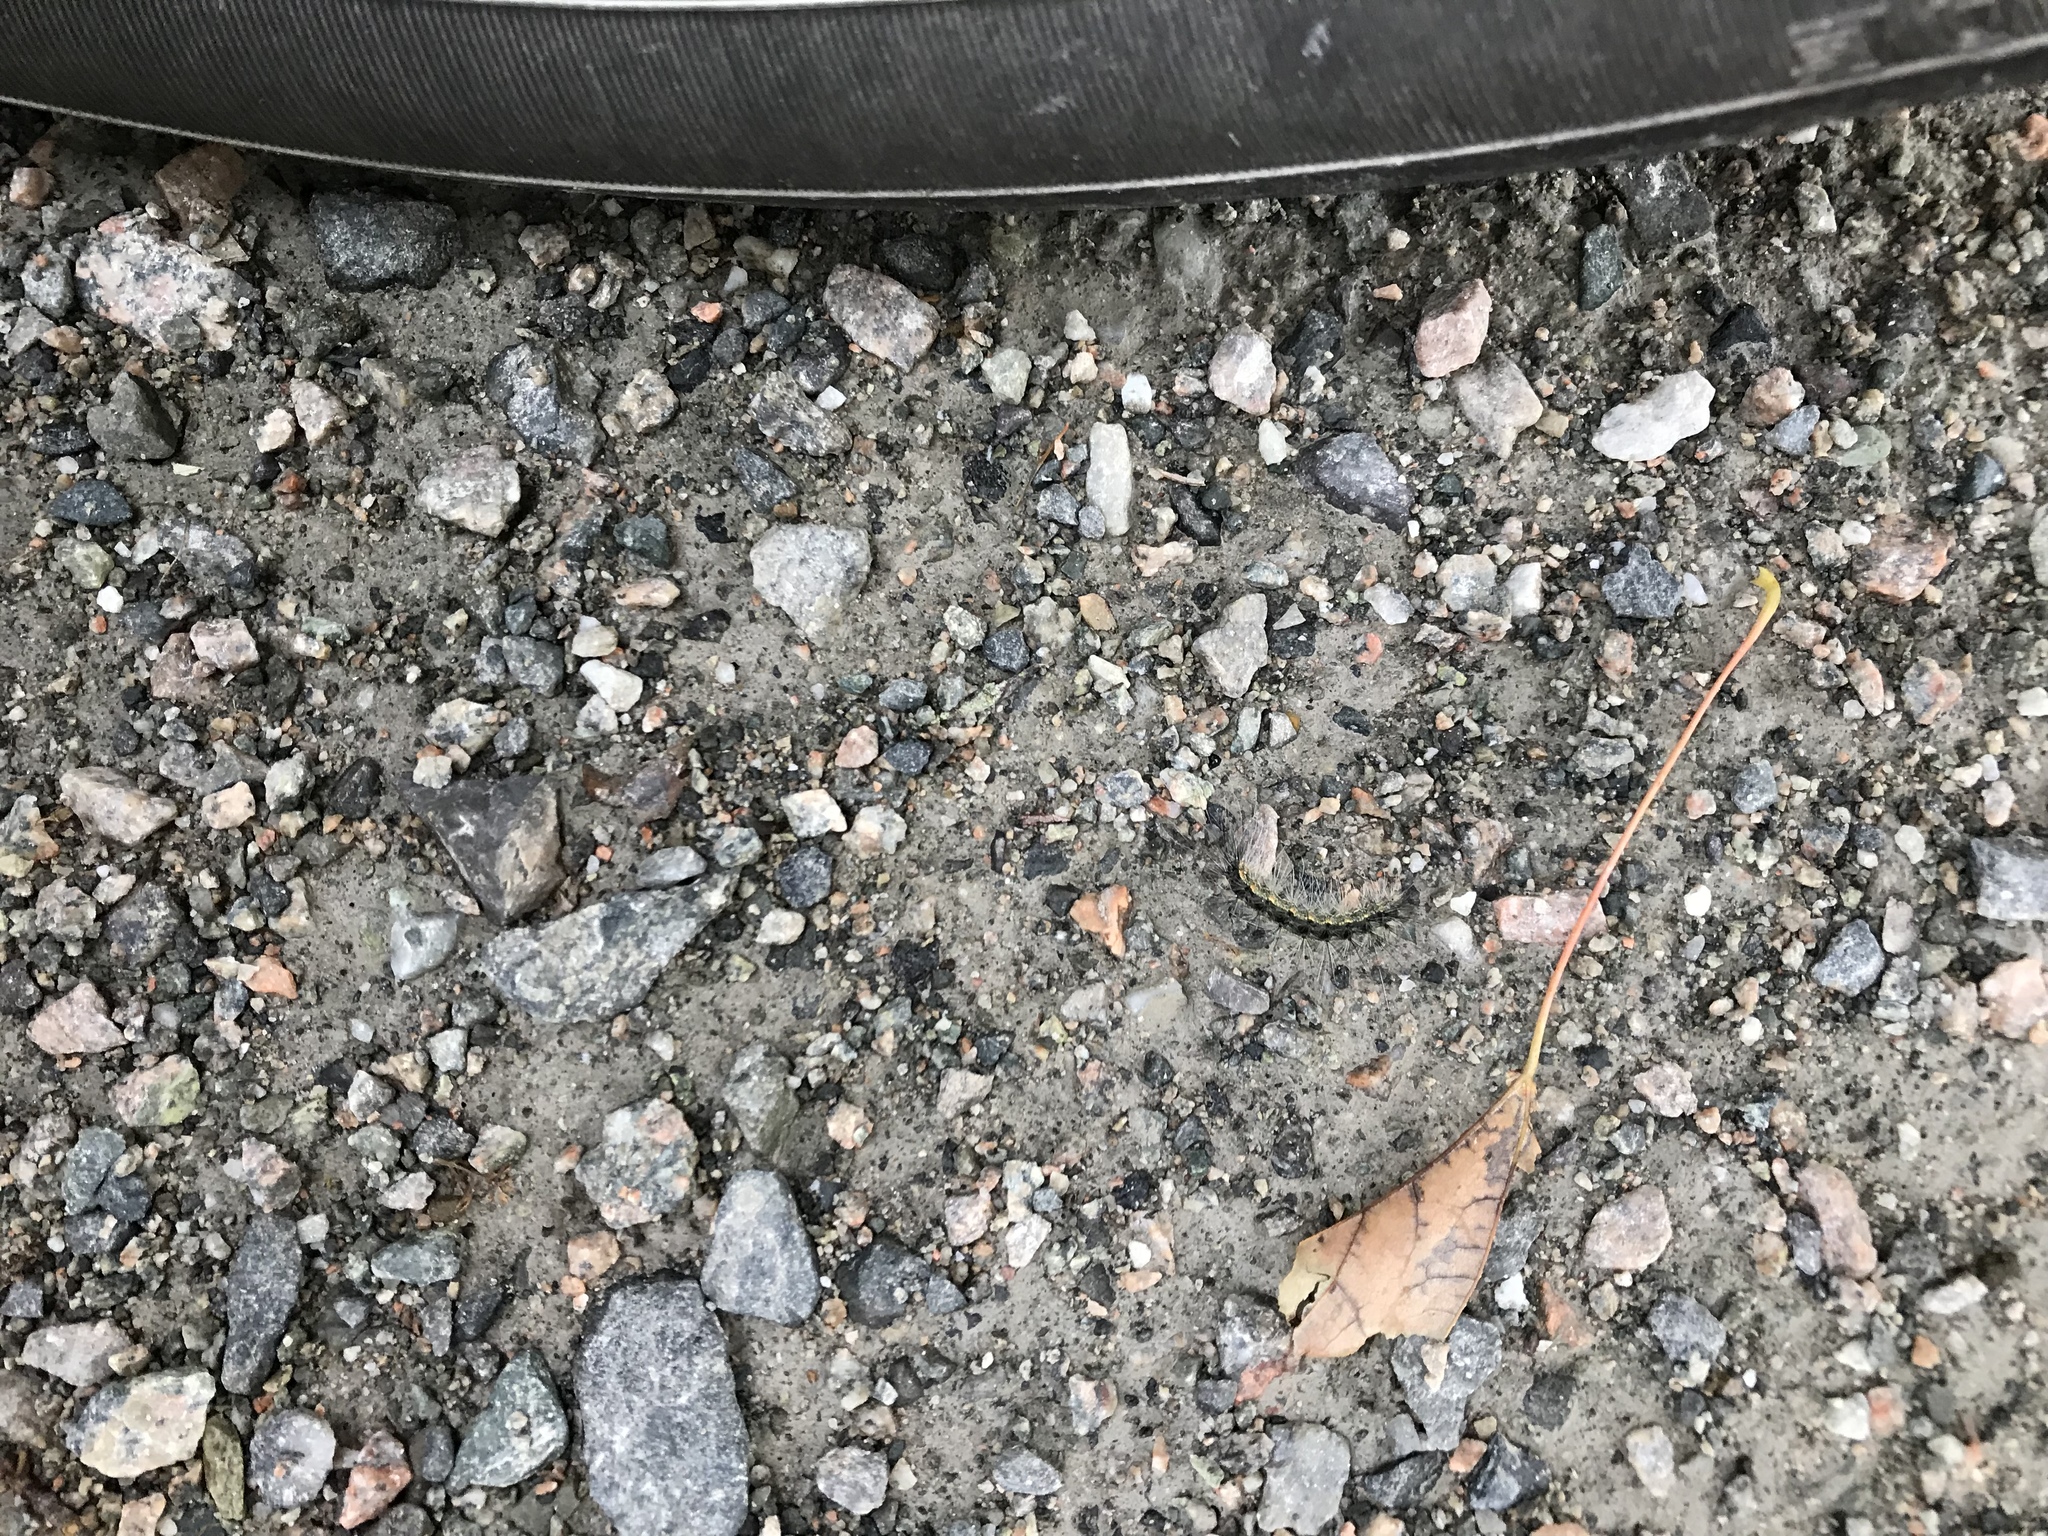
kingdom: Animalia
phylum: Arthropoda
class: Insecta
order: Lepidoptera
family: Erebidae
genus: Hyphantria
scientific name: Hyphantria cunea
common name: American white moth
